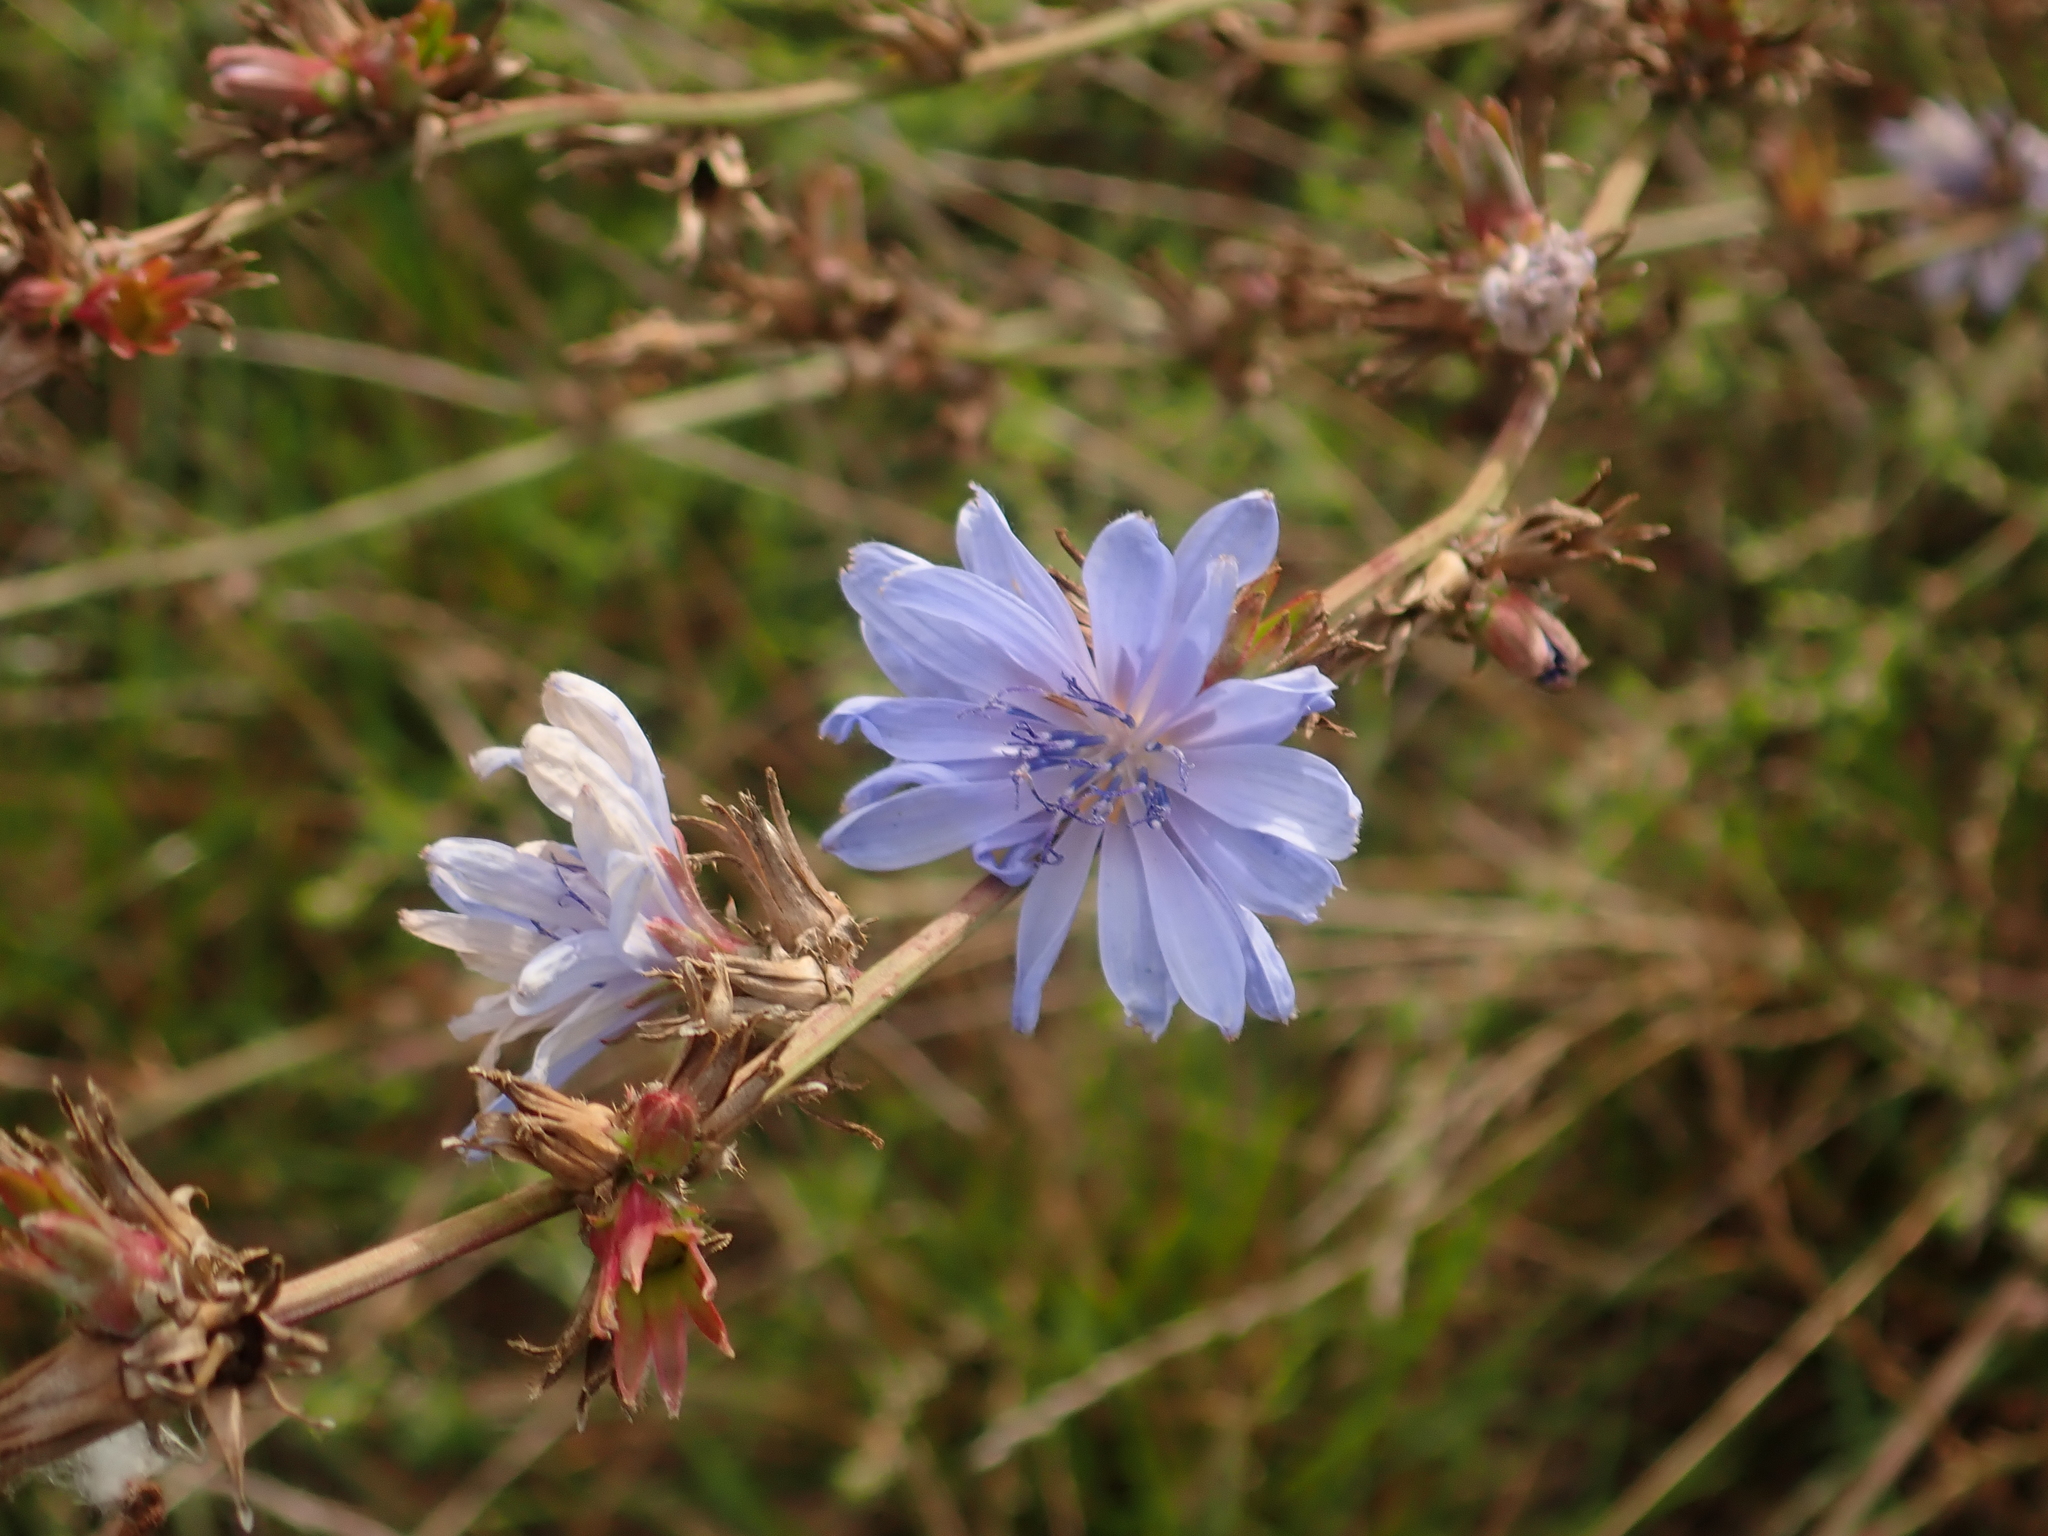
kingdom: Plantae
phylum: Tracheophyta
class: Magnoliopsida
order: Asterales
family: Asteraceae
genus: Cichorium
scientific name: Cichorium intybus
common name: Chicory
